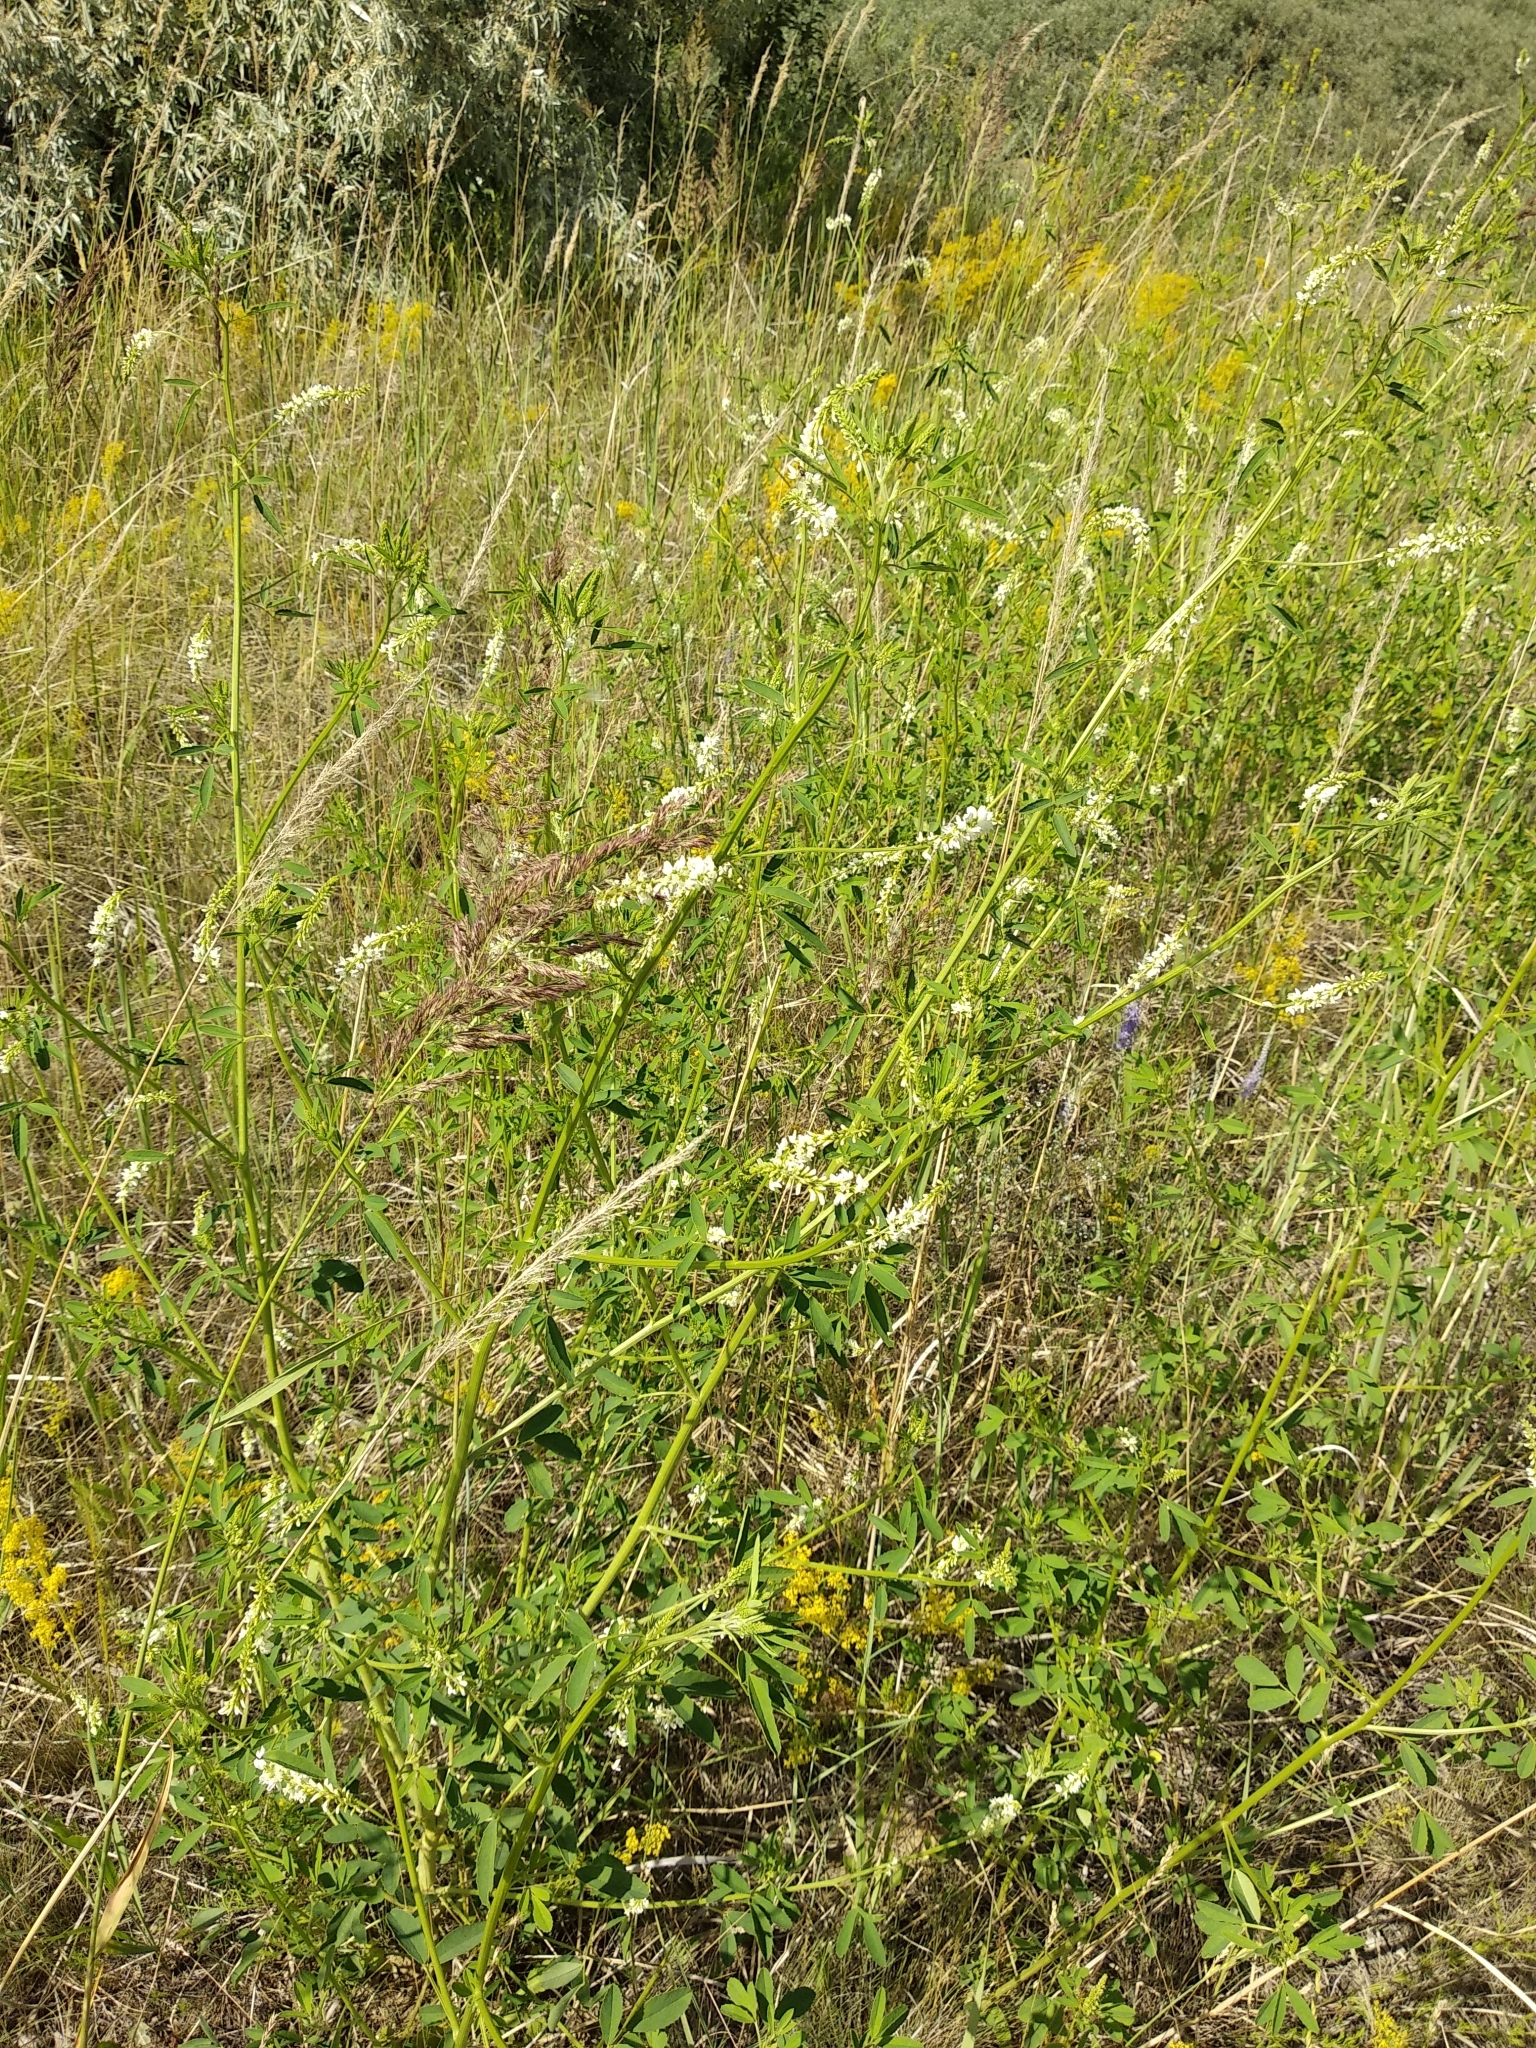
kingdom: Plantae
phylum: Tracheophyta
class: Magnoliopsida
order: Fabales
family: Fabaceae
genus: Melilotus
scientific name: Melilotus albus
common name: White melilot
